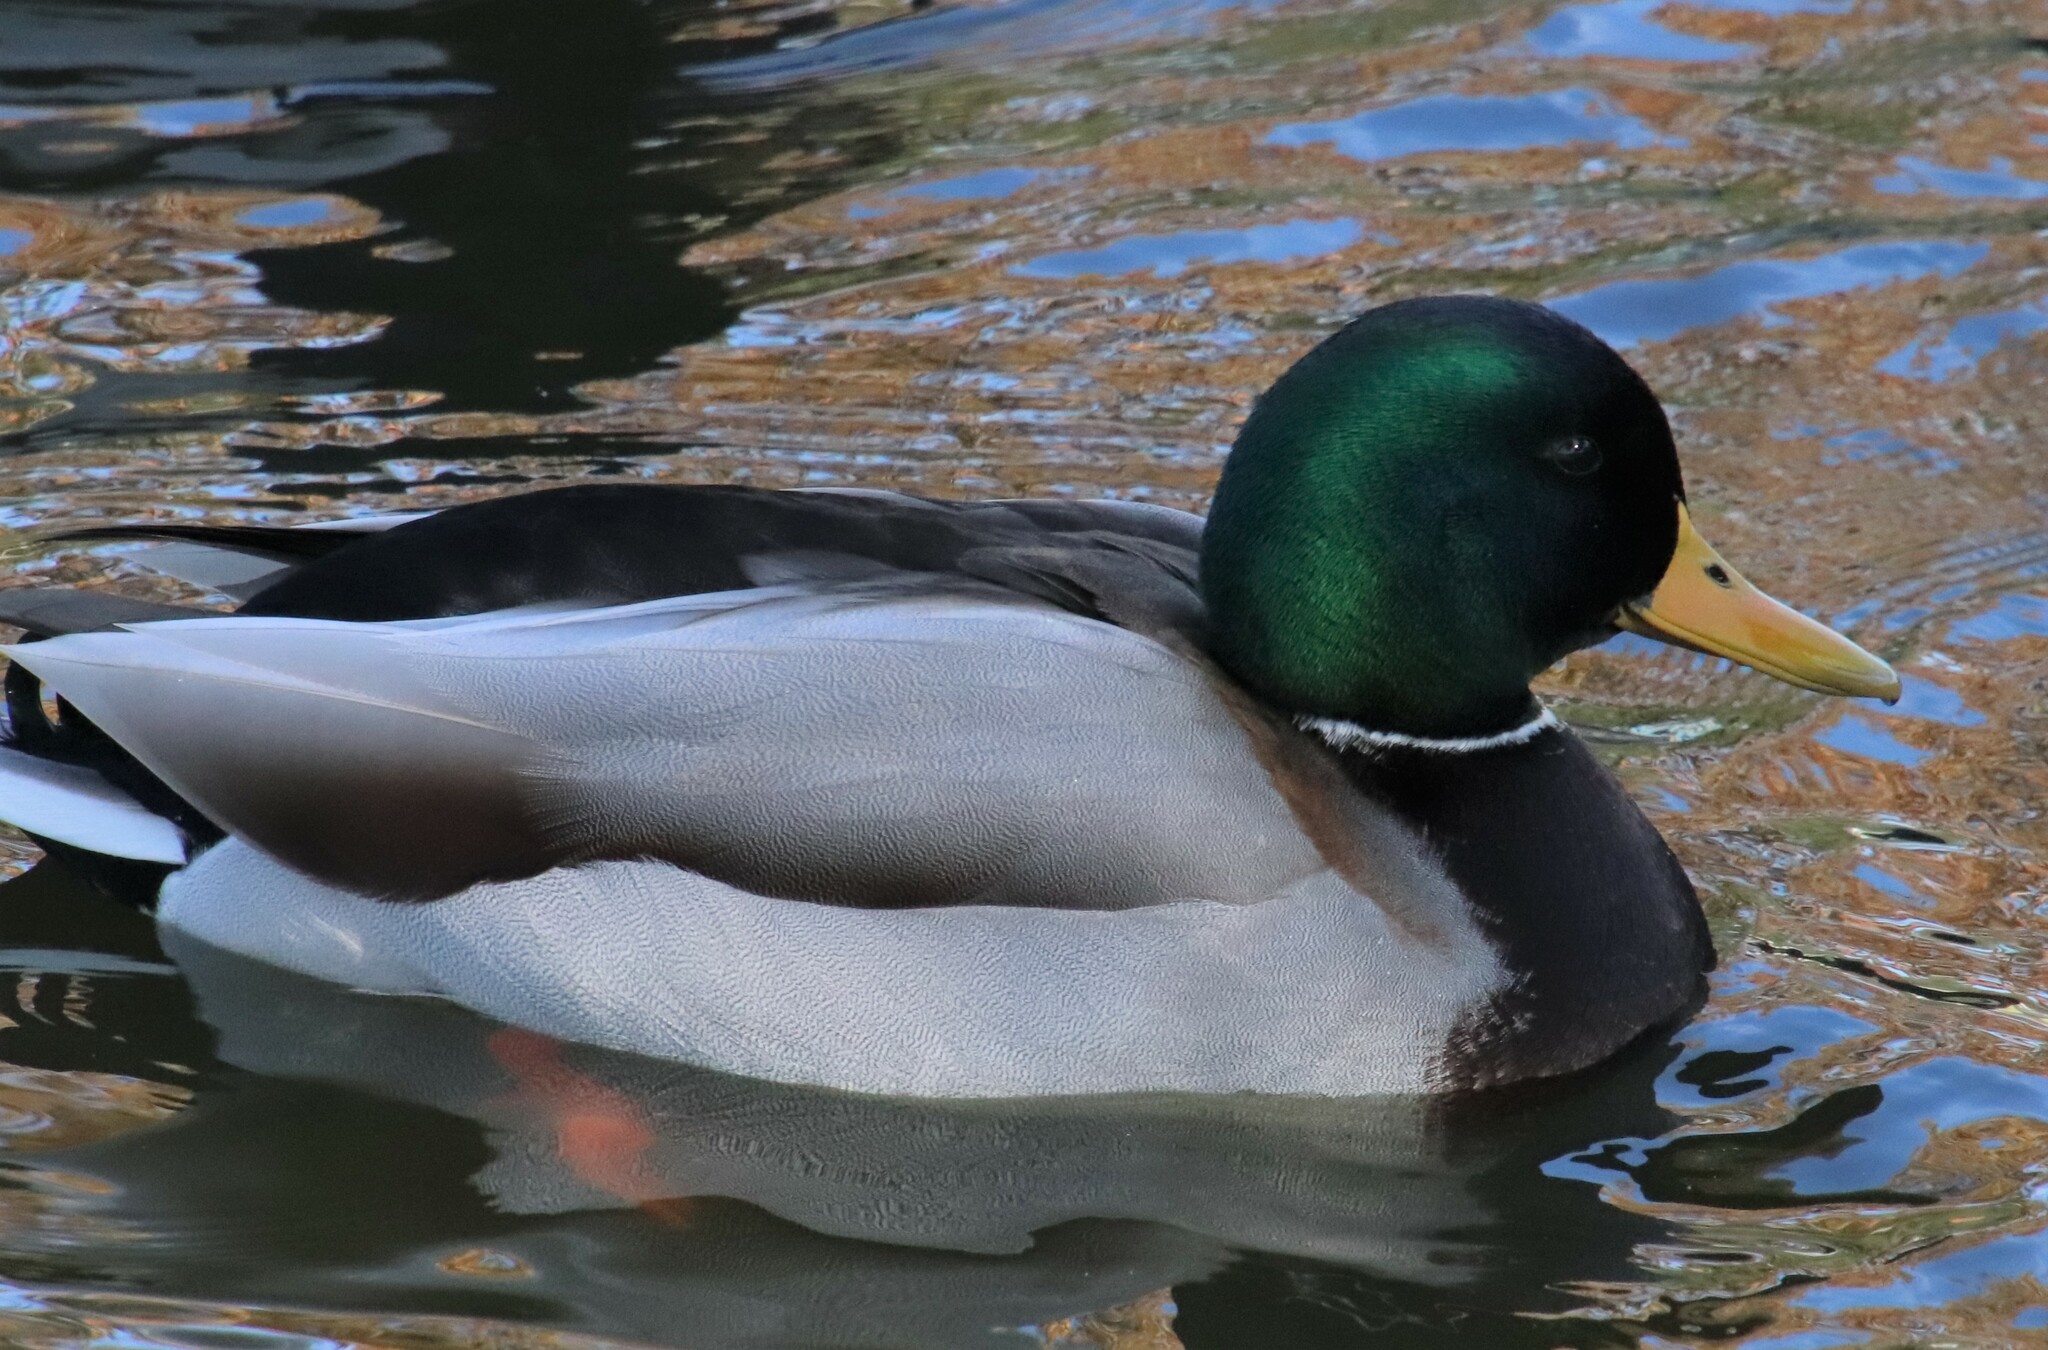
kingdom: Animalia
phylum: Chordata
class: Aves
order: Anseriformes
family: Anatidae
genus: Anas
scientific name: Anas platyrhynchos
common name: Mallard
